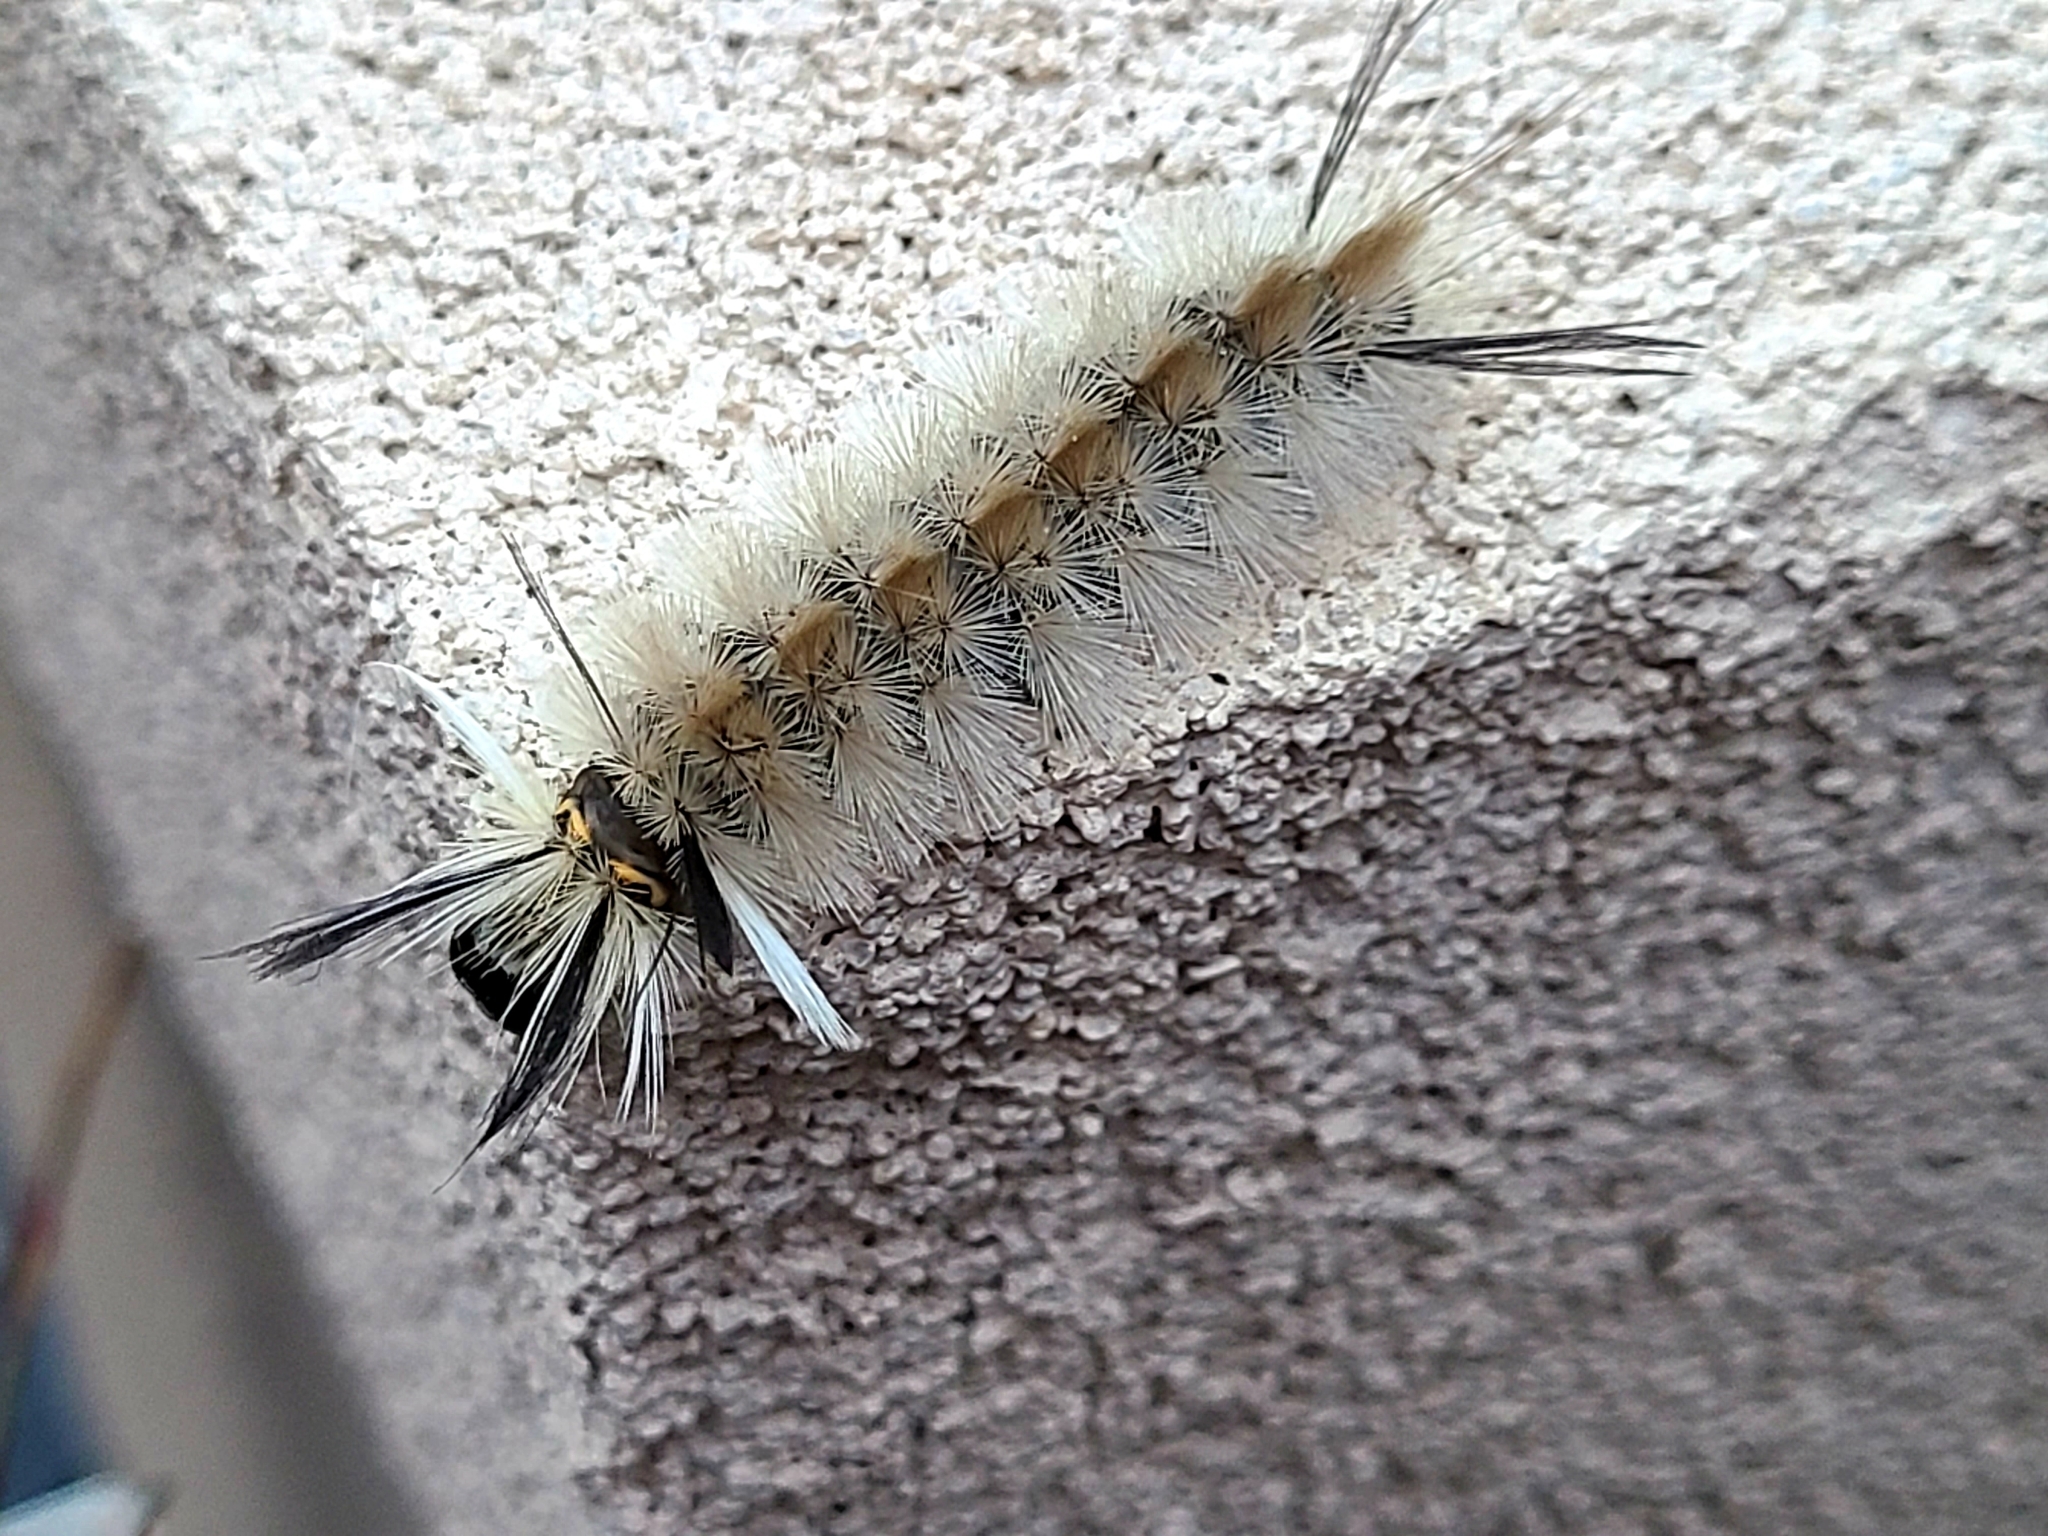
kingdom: Animalia
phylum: Arthropoda
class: Insecta
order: Lepidoptera
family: Erebidae
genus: Halysidota
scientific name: Halysidota tessellaris
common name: Banded tussock moth
